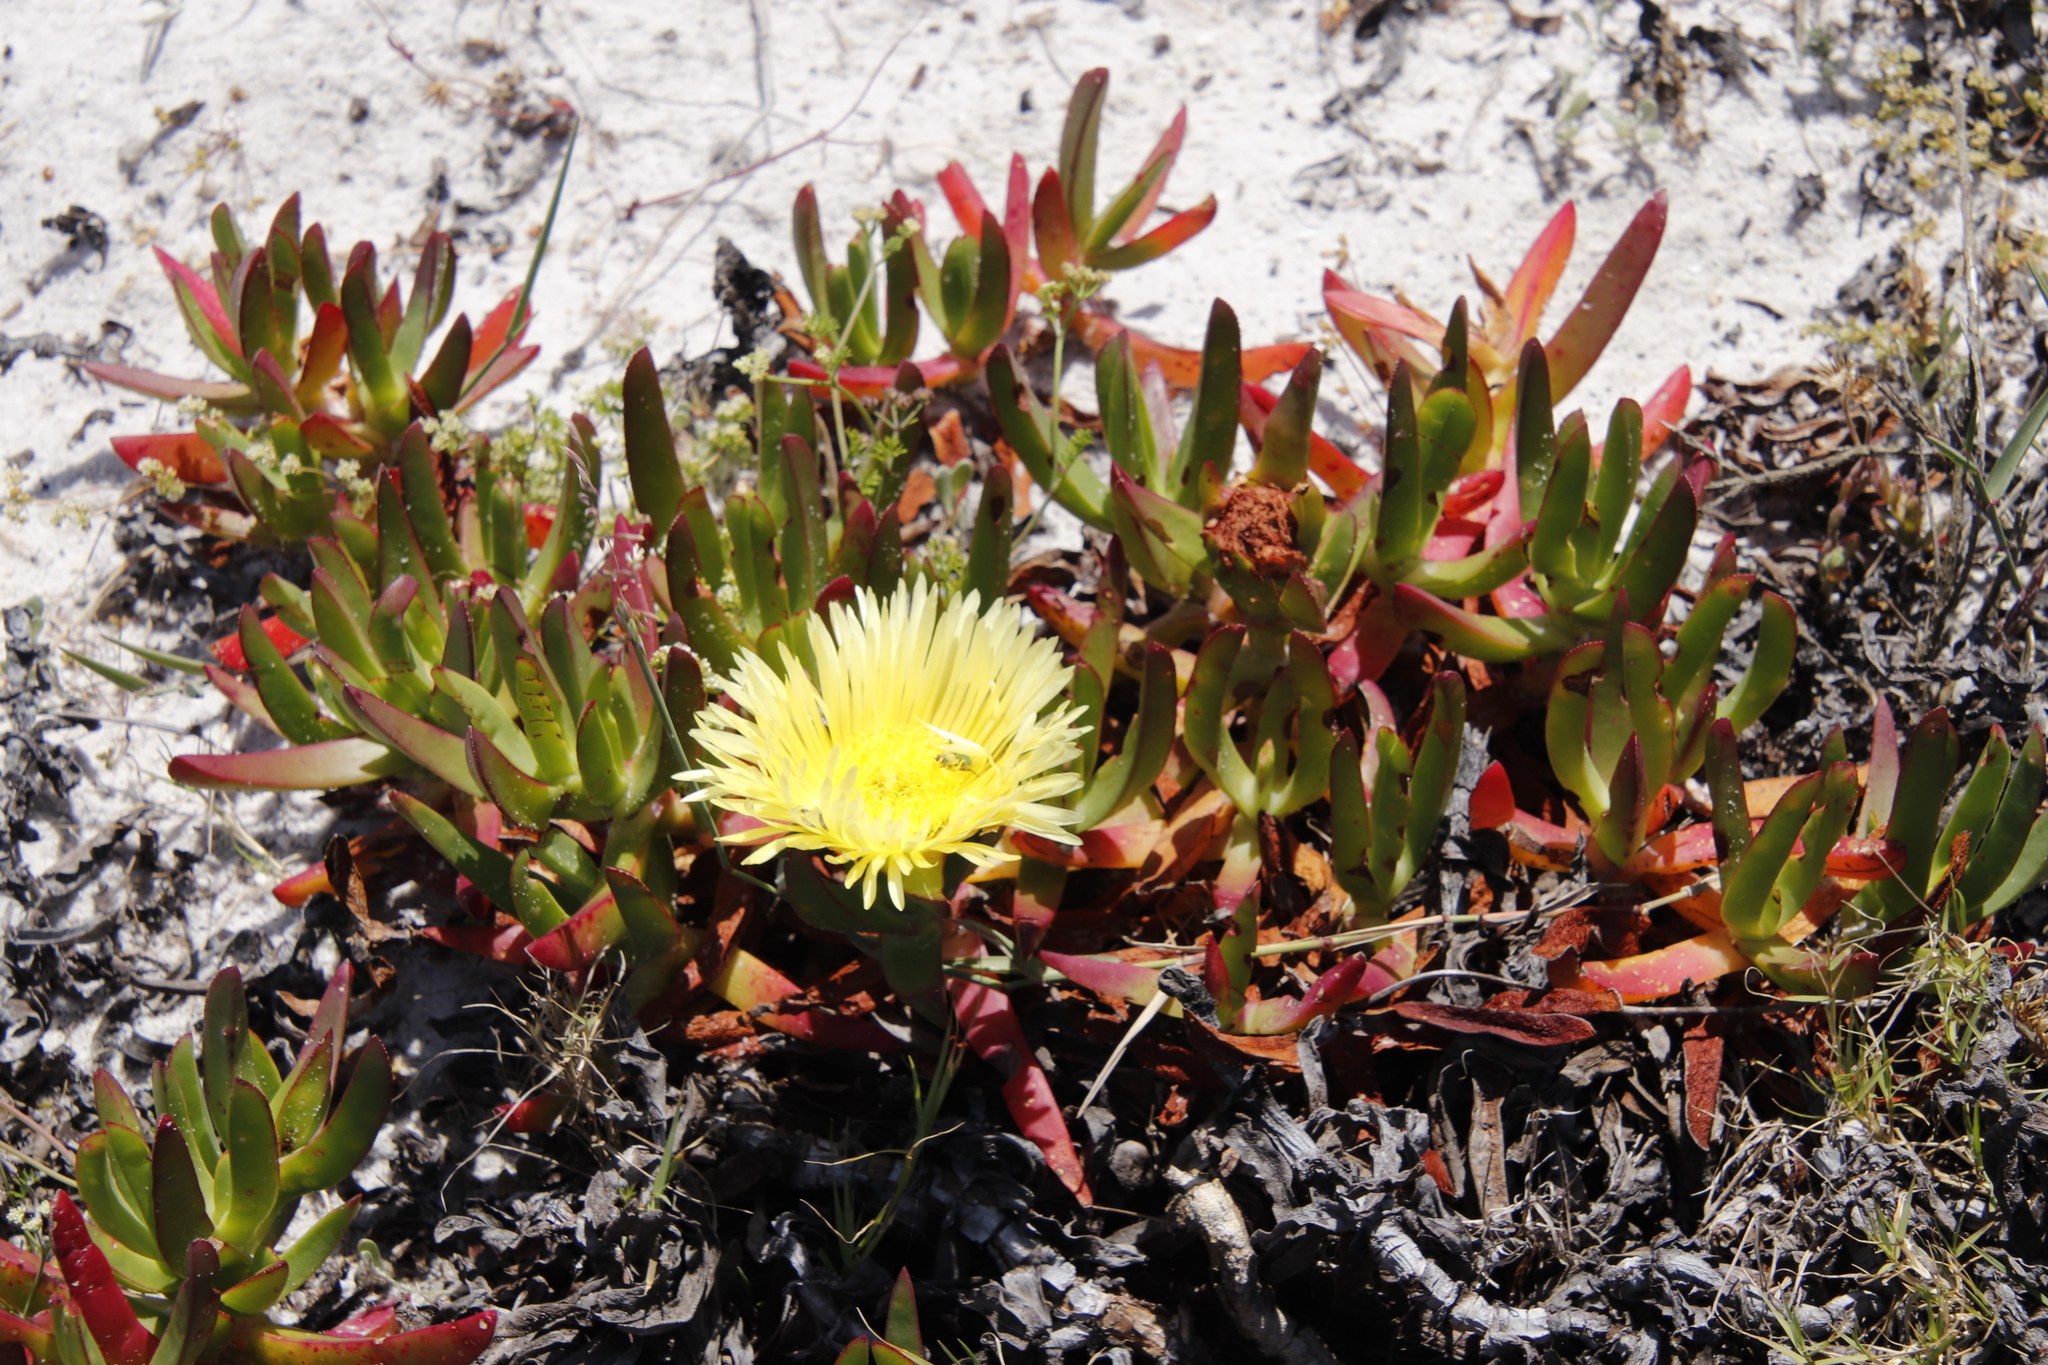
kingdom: Plantae
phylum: Tracheophyta
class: Magnoliopsida
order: Caryophyllales
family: Aizoaceae
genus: Carpobrotus
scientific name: Carpobrotus edulis
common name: Hottentot-fig
